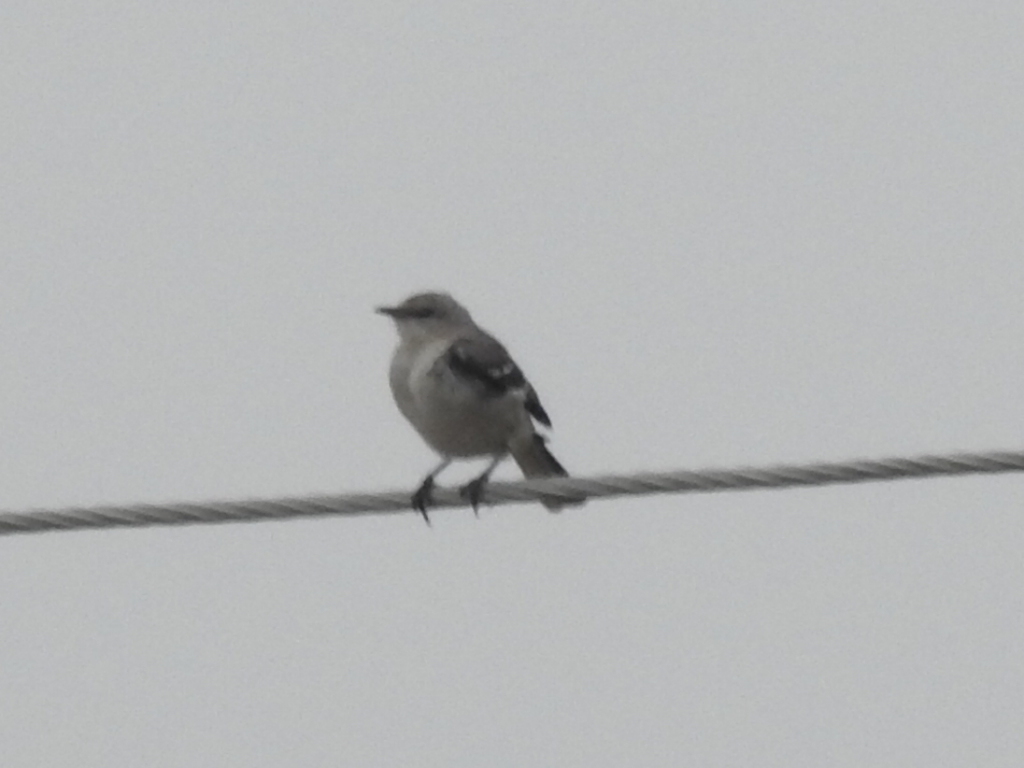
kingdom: Animalia
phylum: Chordata
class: Aves
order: Passeriformes
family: Mimidae
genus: Mimus
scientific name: Mimus polyglottos
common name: Northern mockingbird
